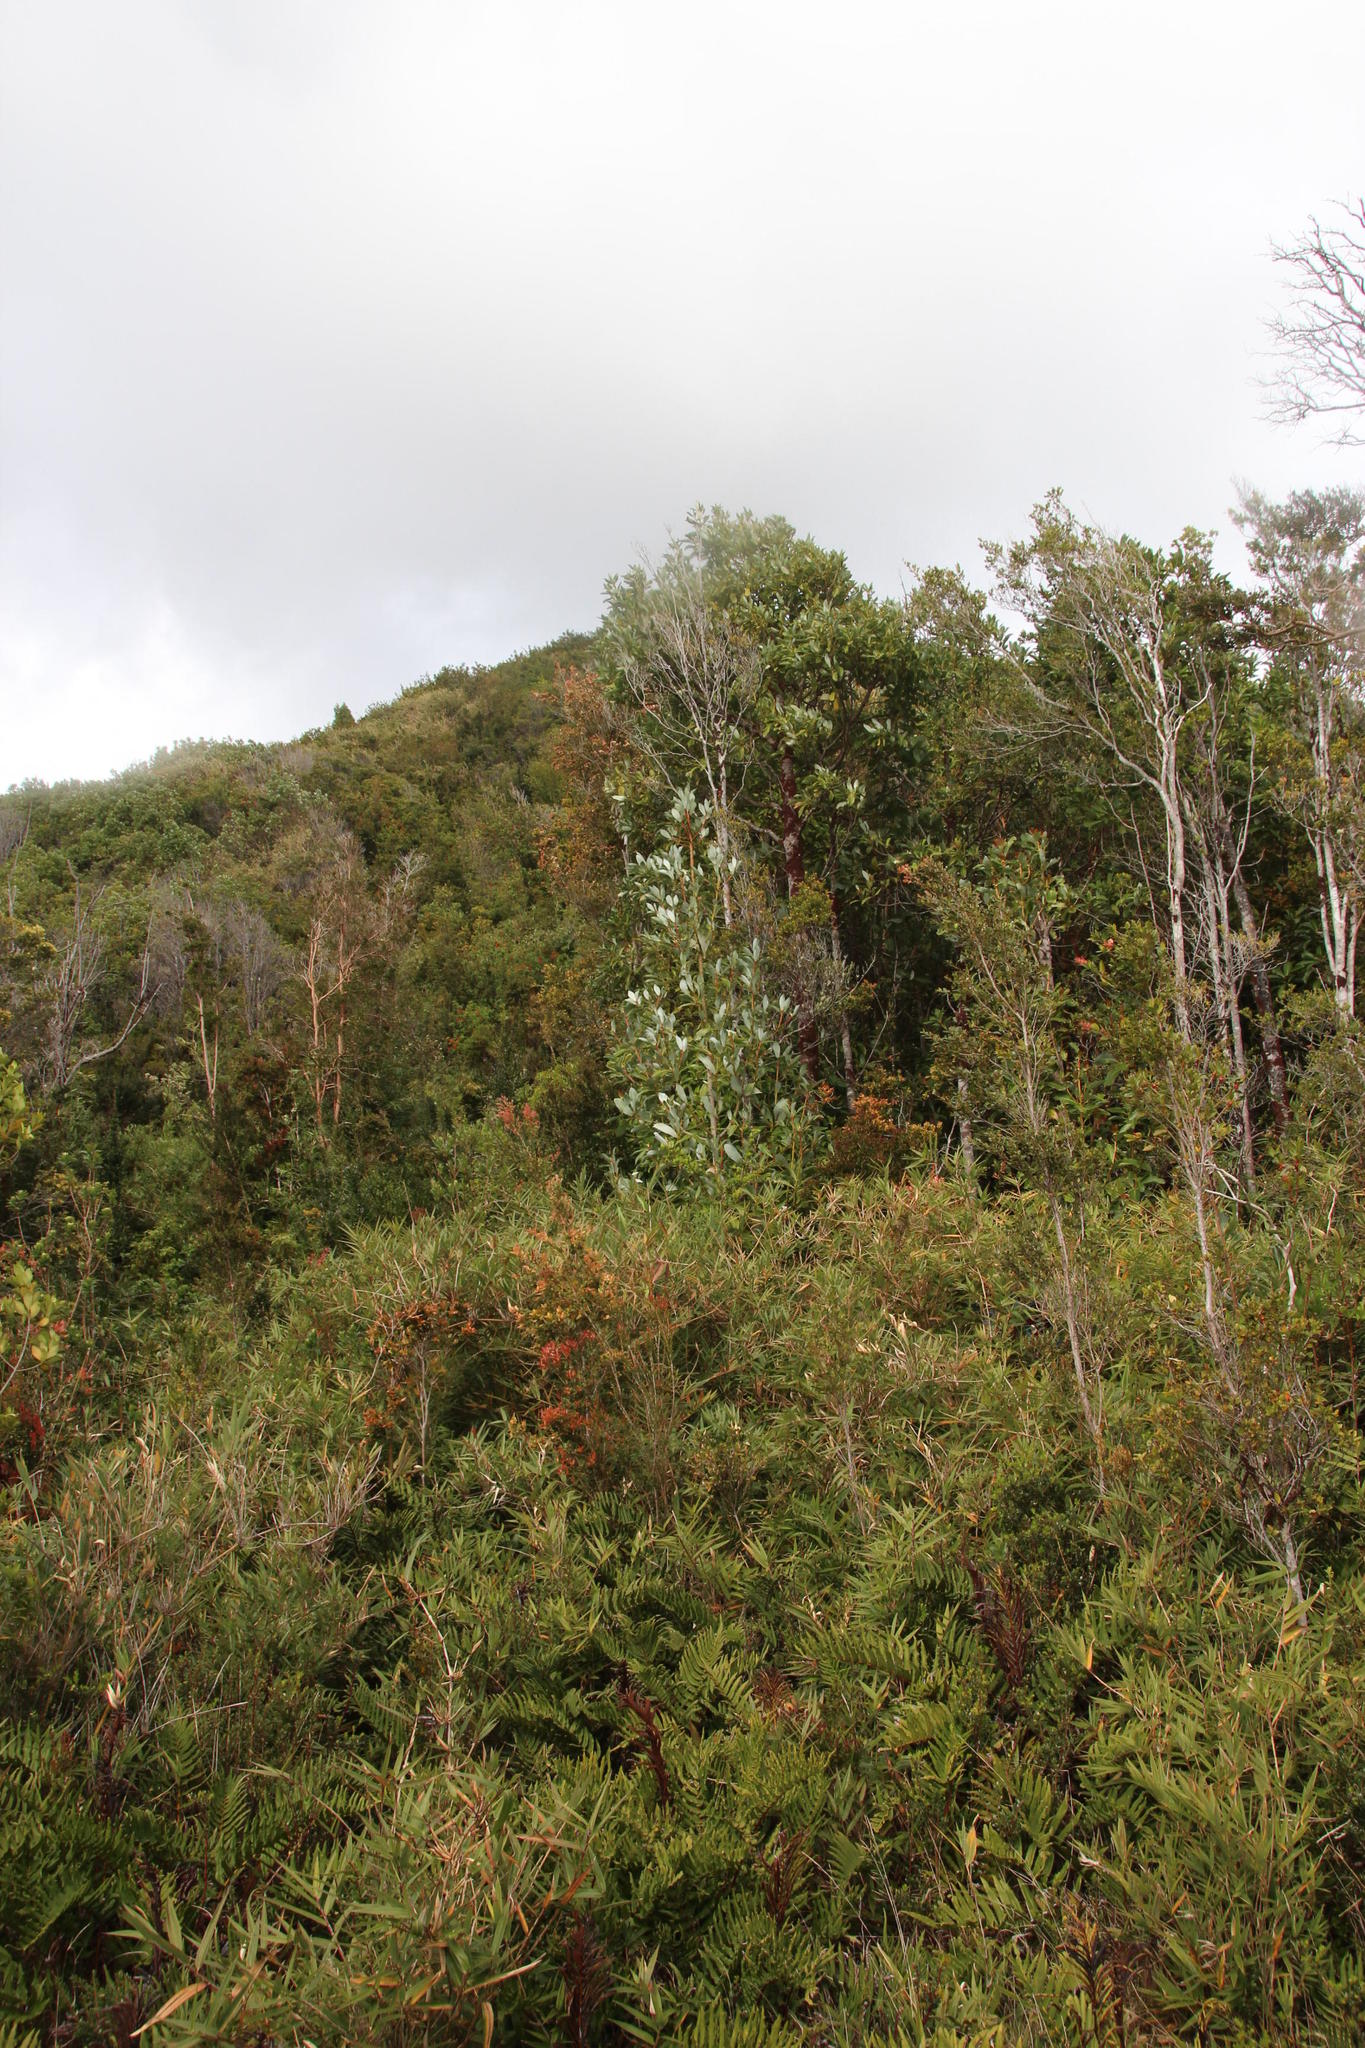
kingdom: Plantae
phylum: Tracheophyta
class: Magnoliopsida
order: Canellales
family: Winteraceae
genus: Drimys
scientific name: Drimys winteri
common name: Winter's-bark
